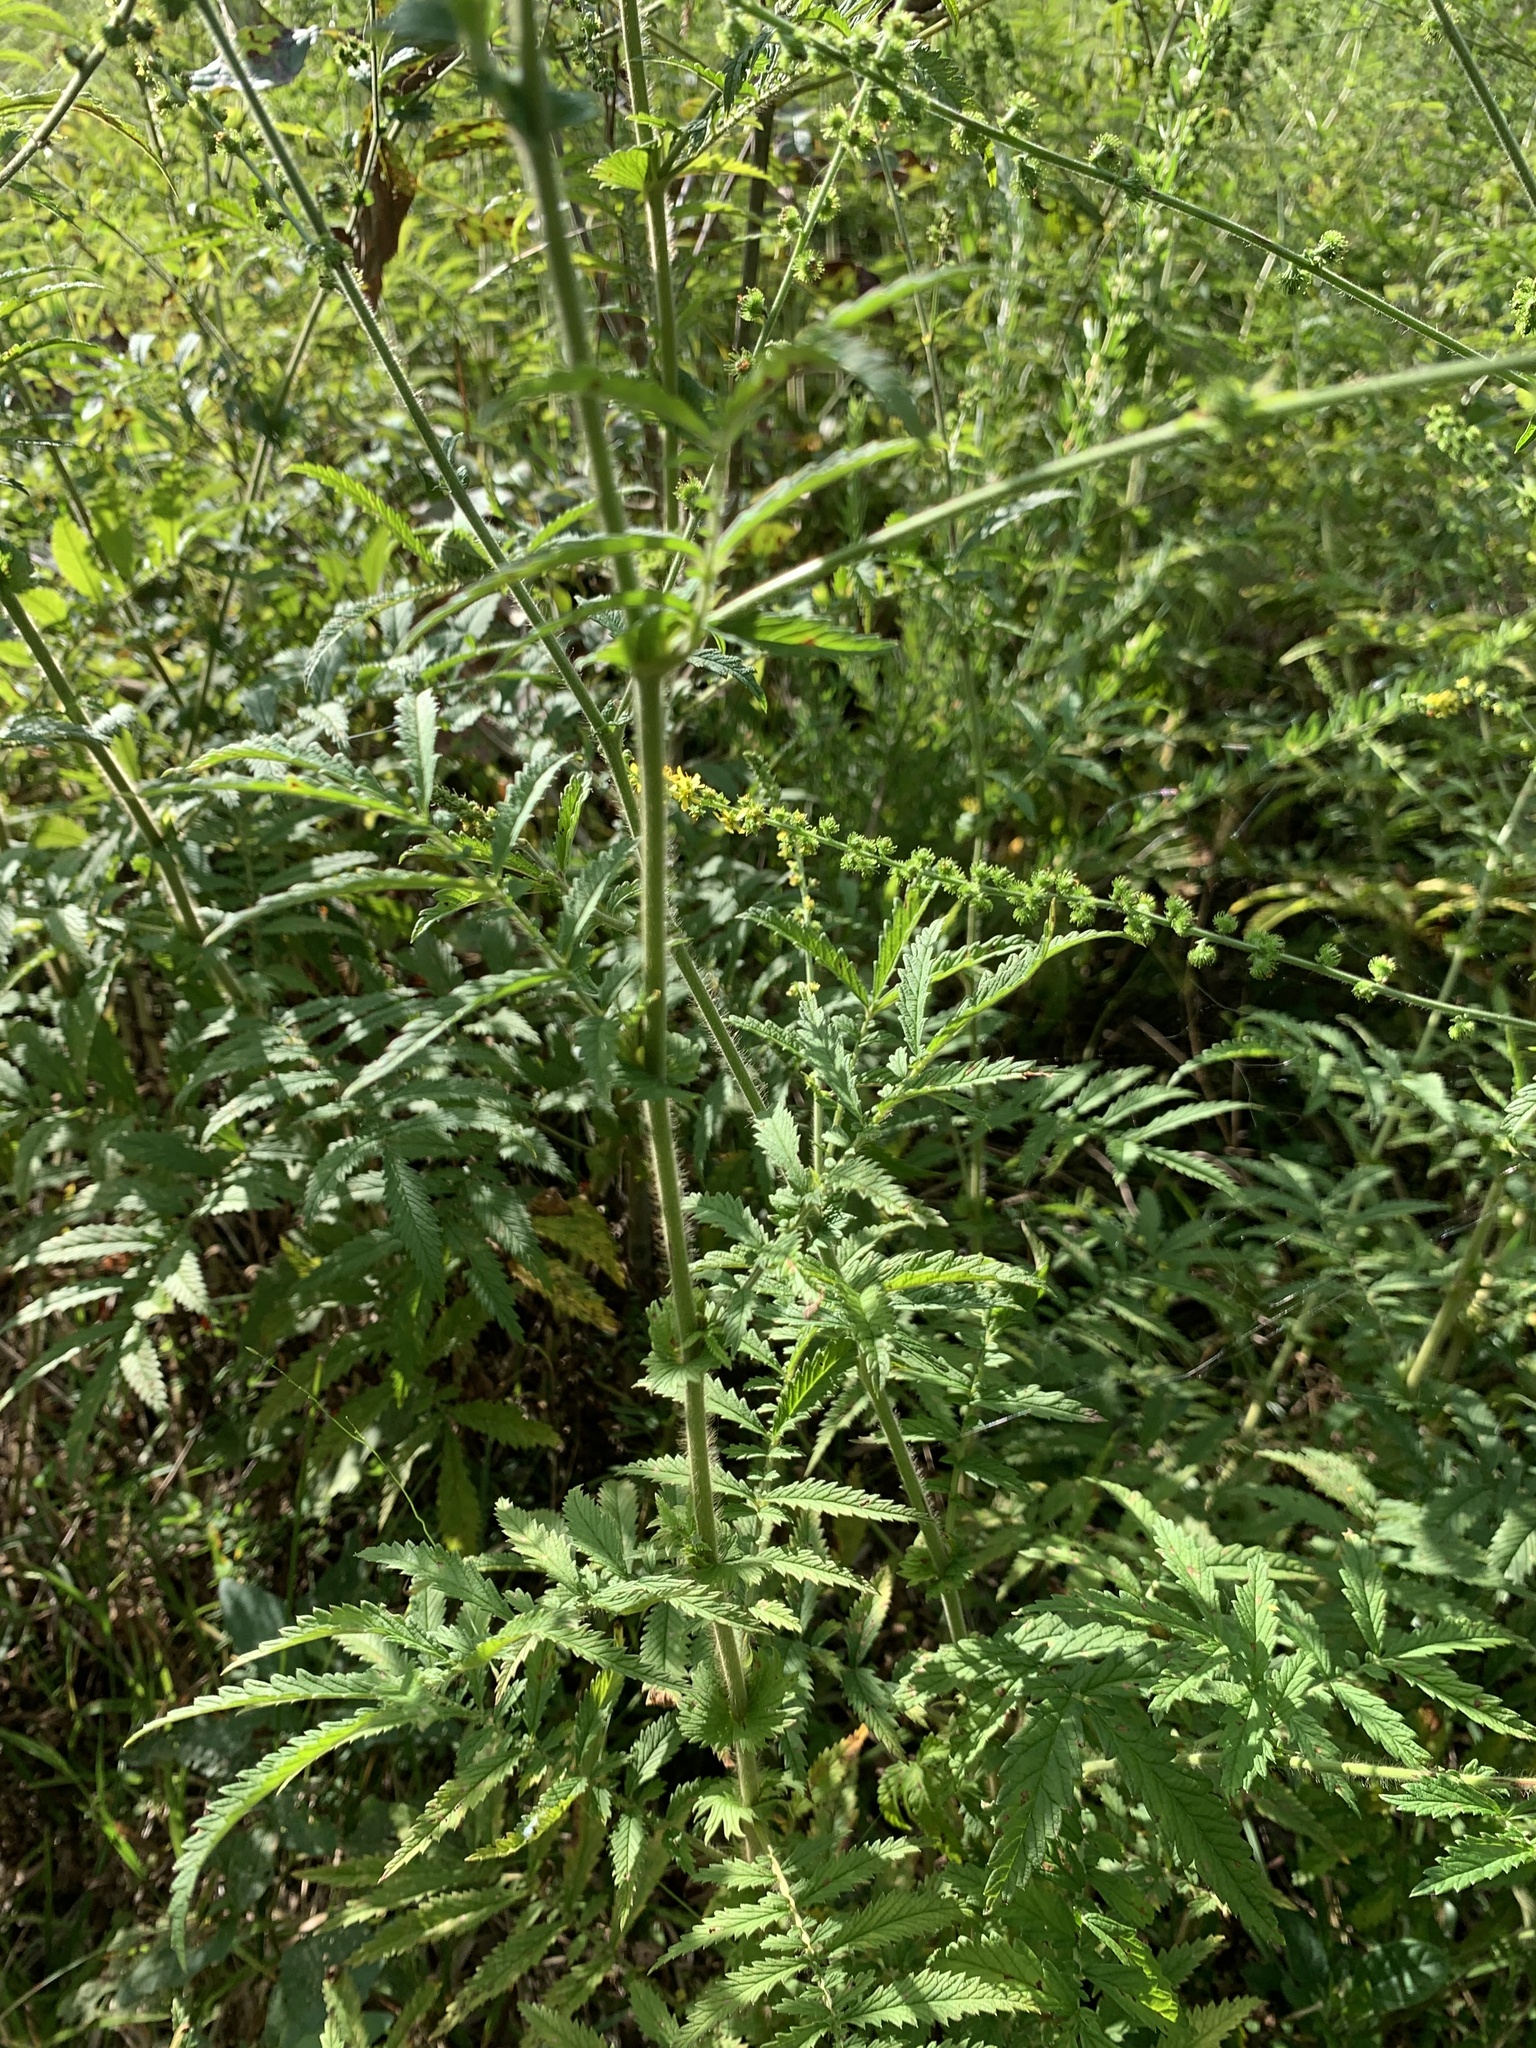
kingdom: Plantae
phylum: Tracheophyta
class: Magnoliopsida
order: Rosales
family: Rosaceae
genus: Agrimonia
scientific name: Agrimonia parviflora
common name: Harvest-lice
